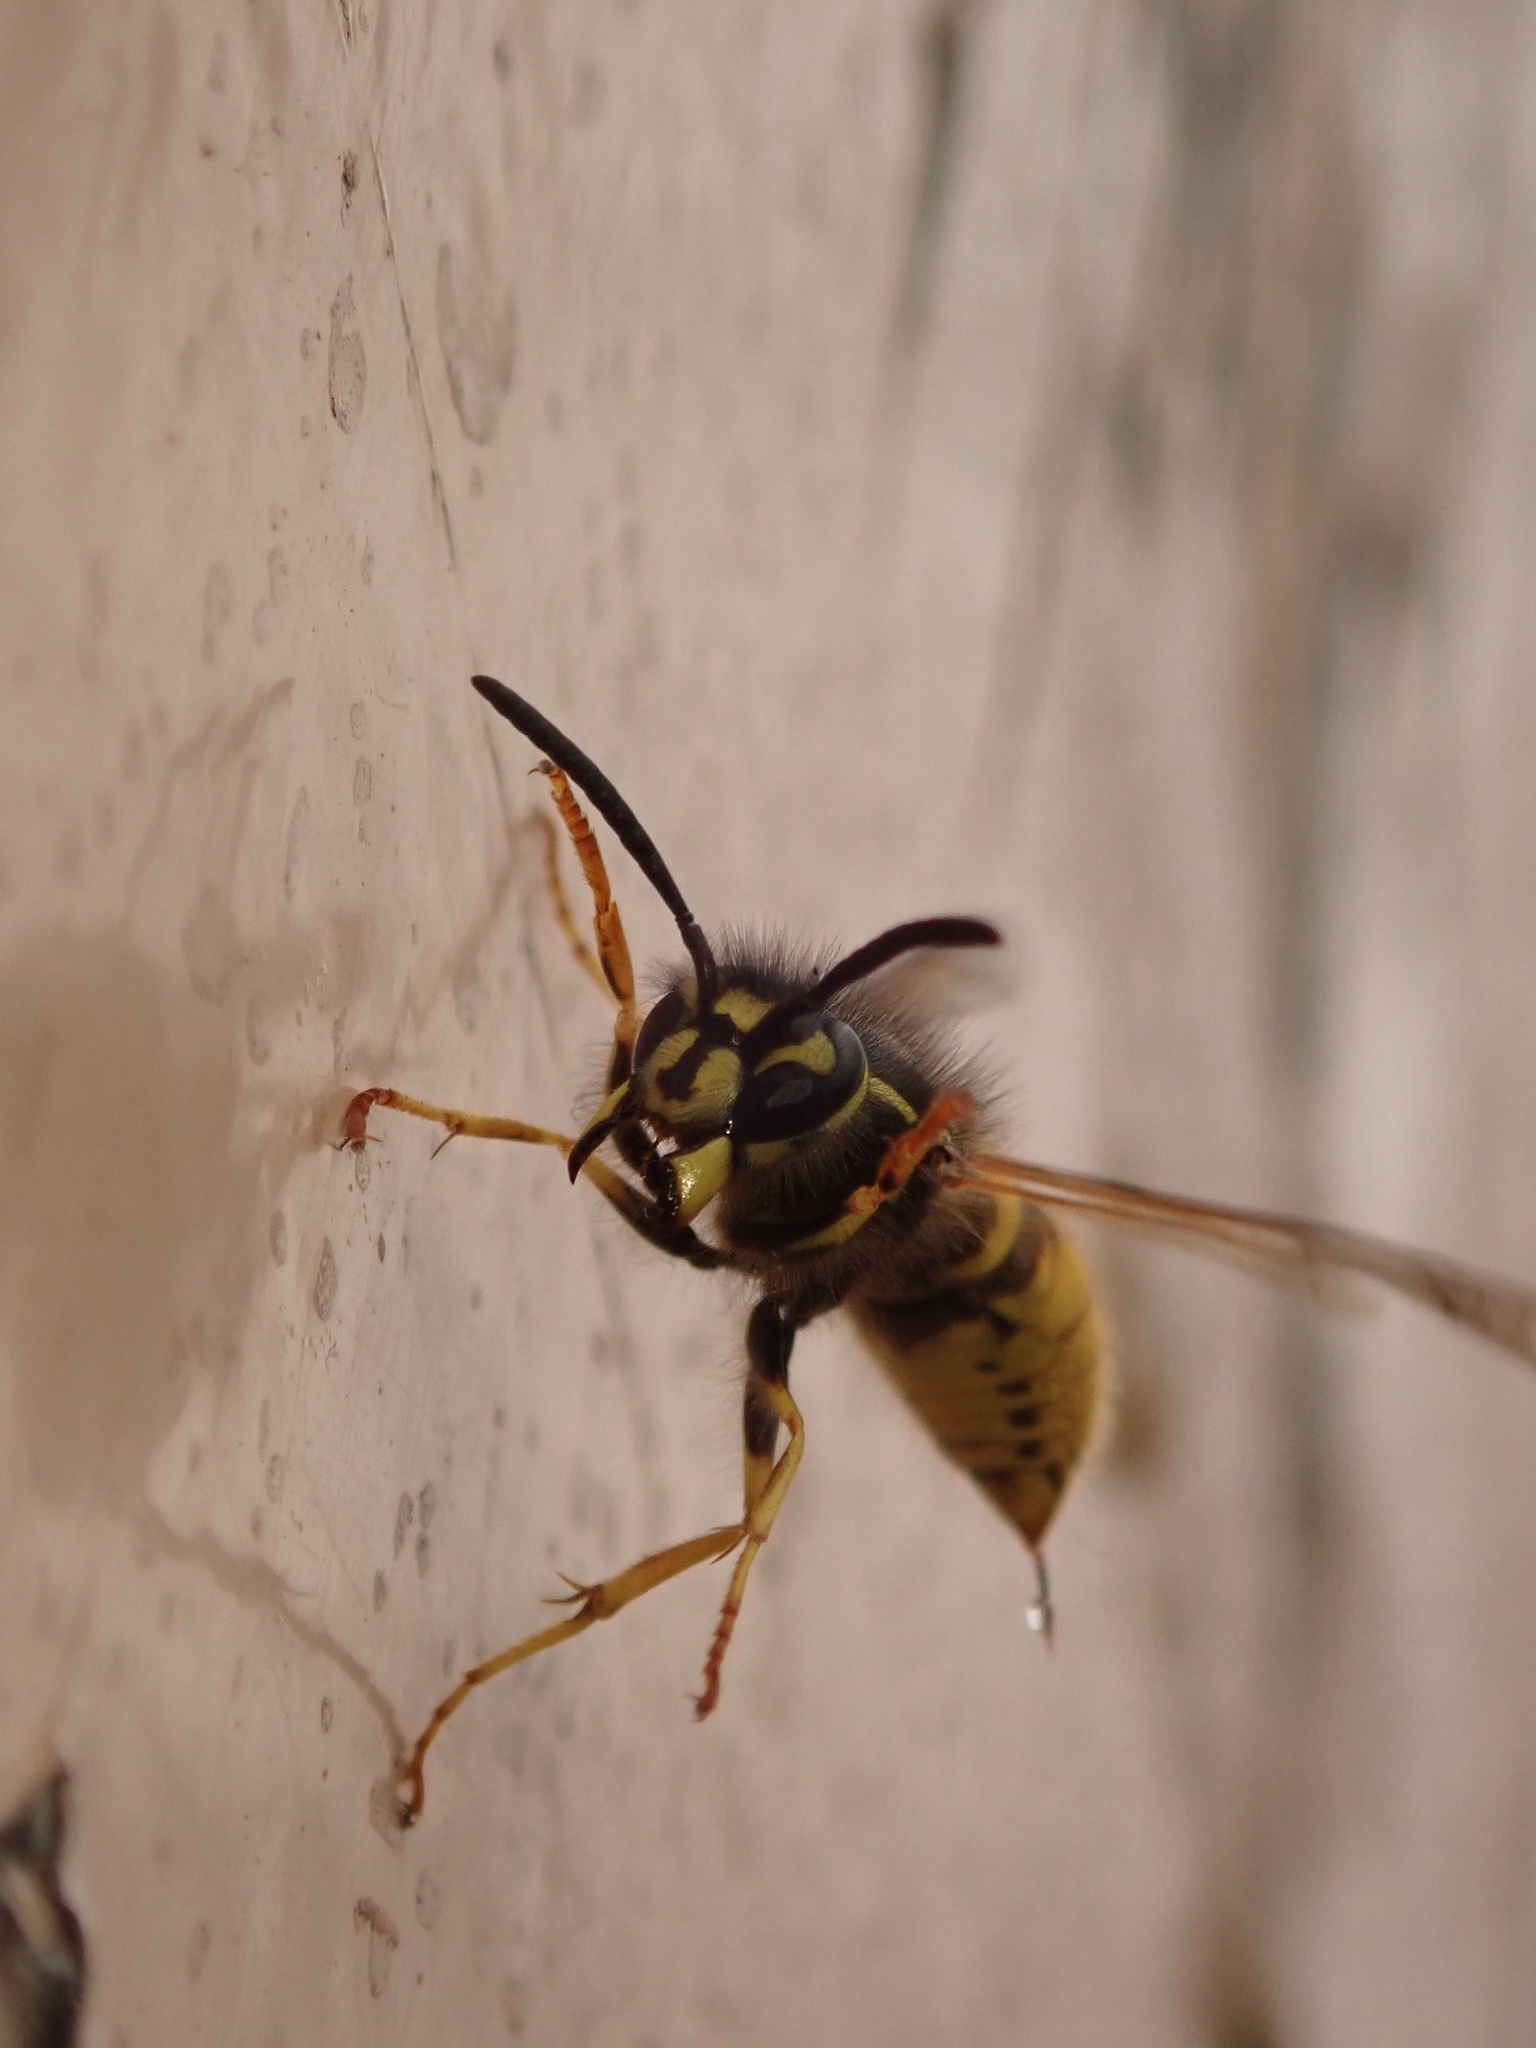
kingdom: Animalia
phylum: Arthropoda
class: Insecta
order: Hymenoptera
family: Vespidae
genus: Vespula
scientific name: Vespula vulgaris
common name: Common wasp
